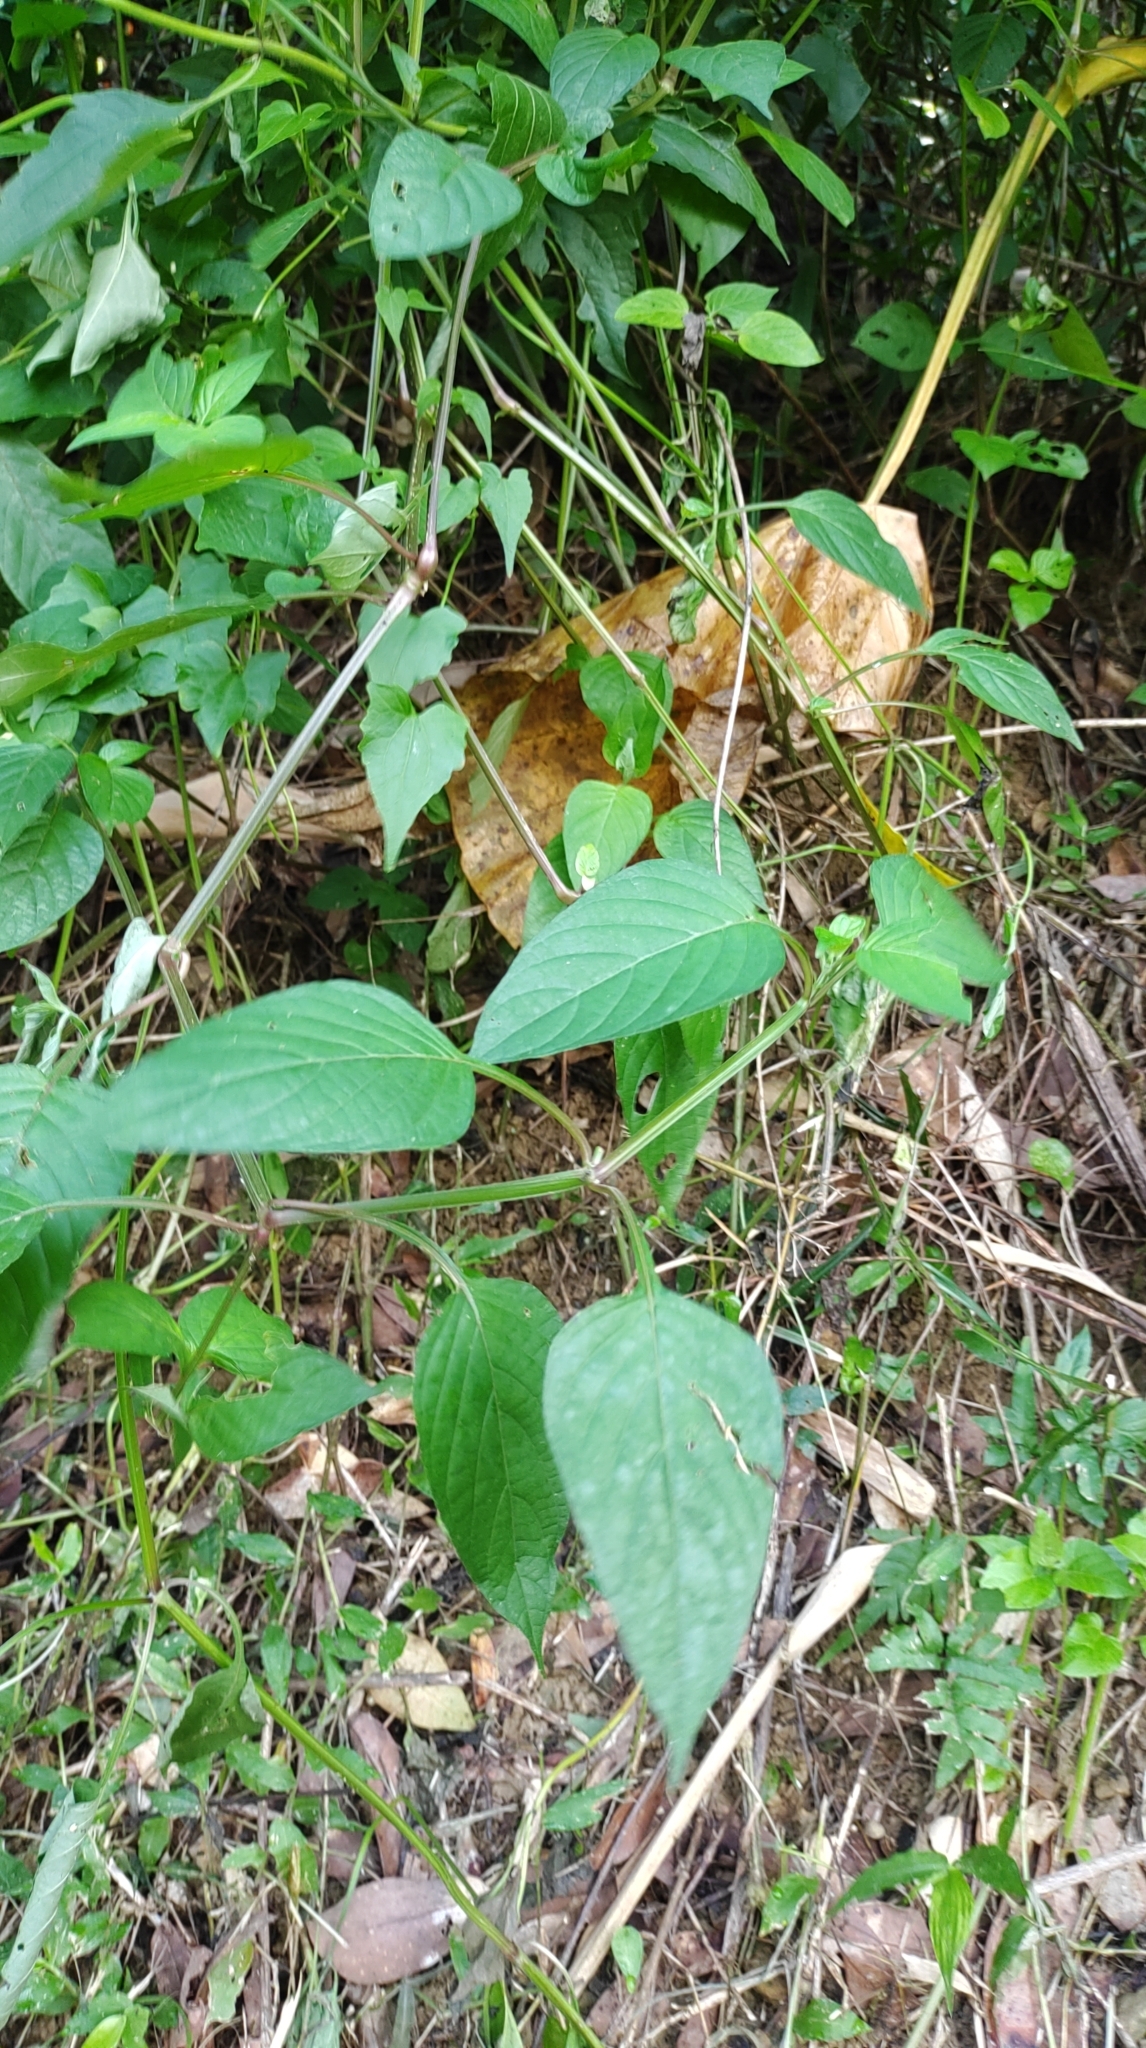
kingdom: Plantae
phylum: Tracheophyta
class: Magnoliopsida
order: Lamiales
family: Acanthaceae
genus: Asystasia
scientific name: Asystasia intrusa
